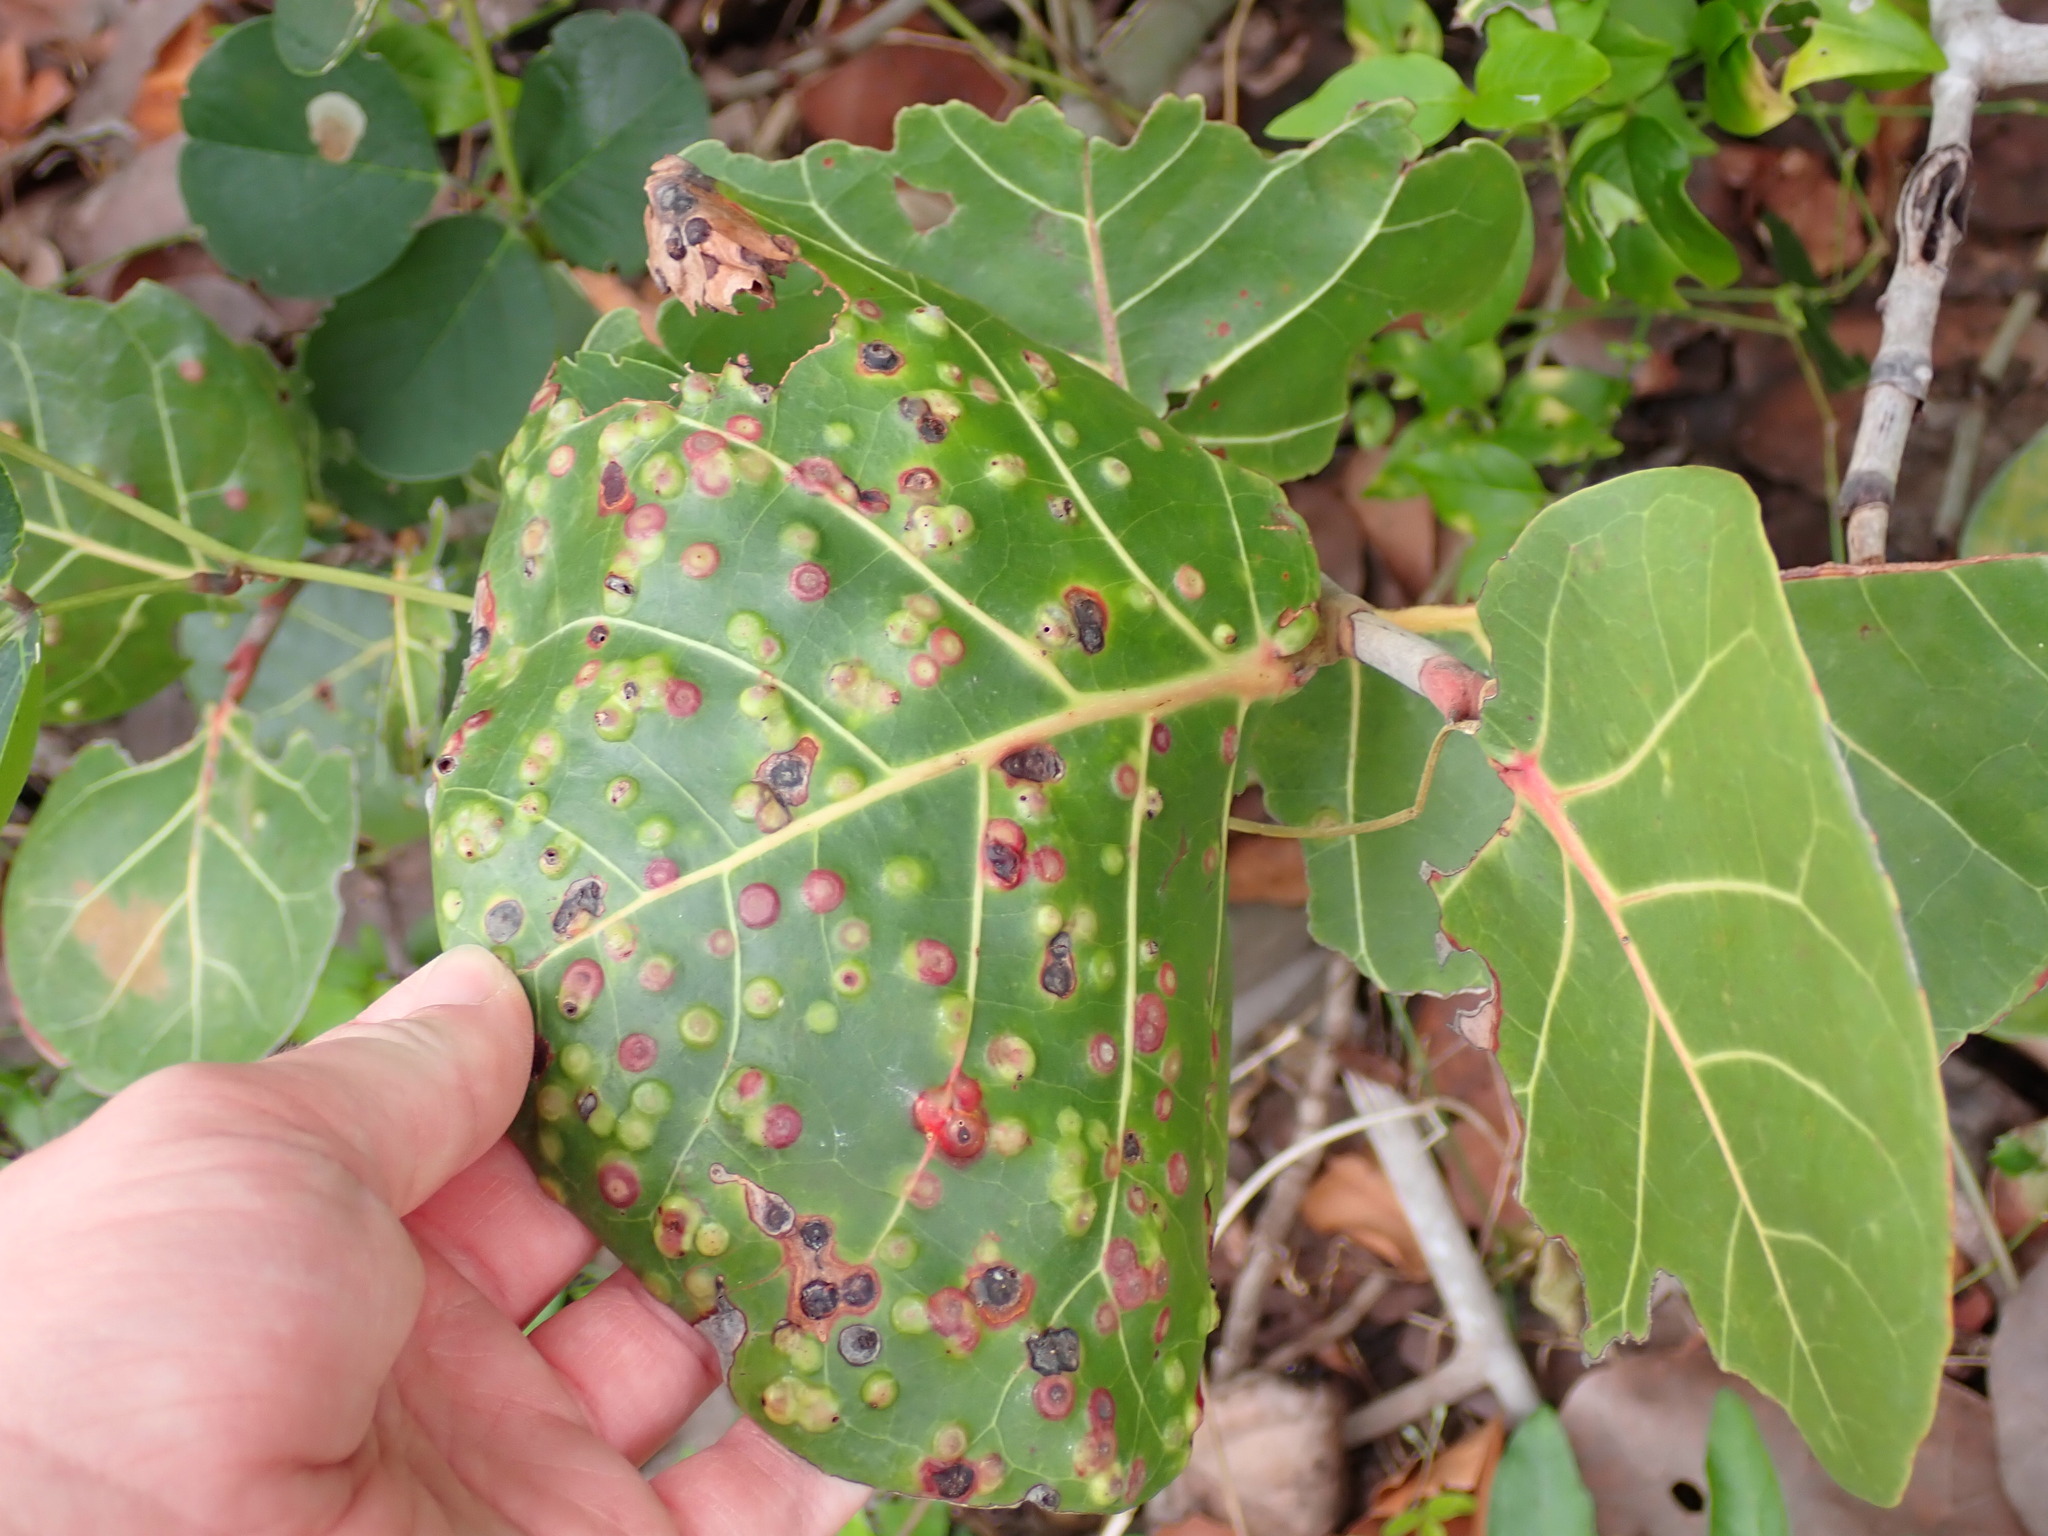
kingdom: Animalia
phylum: Arthropoda
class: Insecta
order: Diptera
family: Cecidomyiidae
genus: Ctenodactylomyia
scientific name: Ctenodactylomyia watsoni
